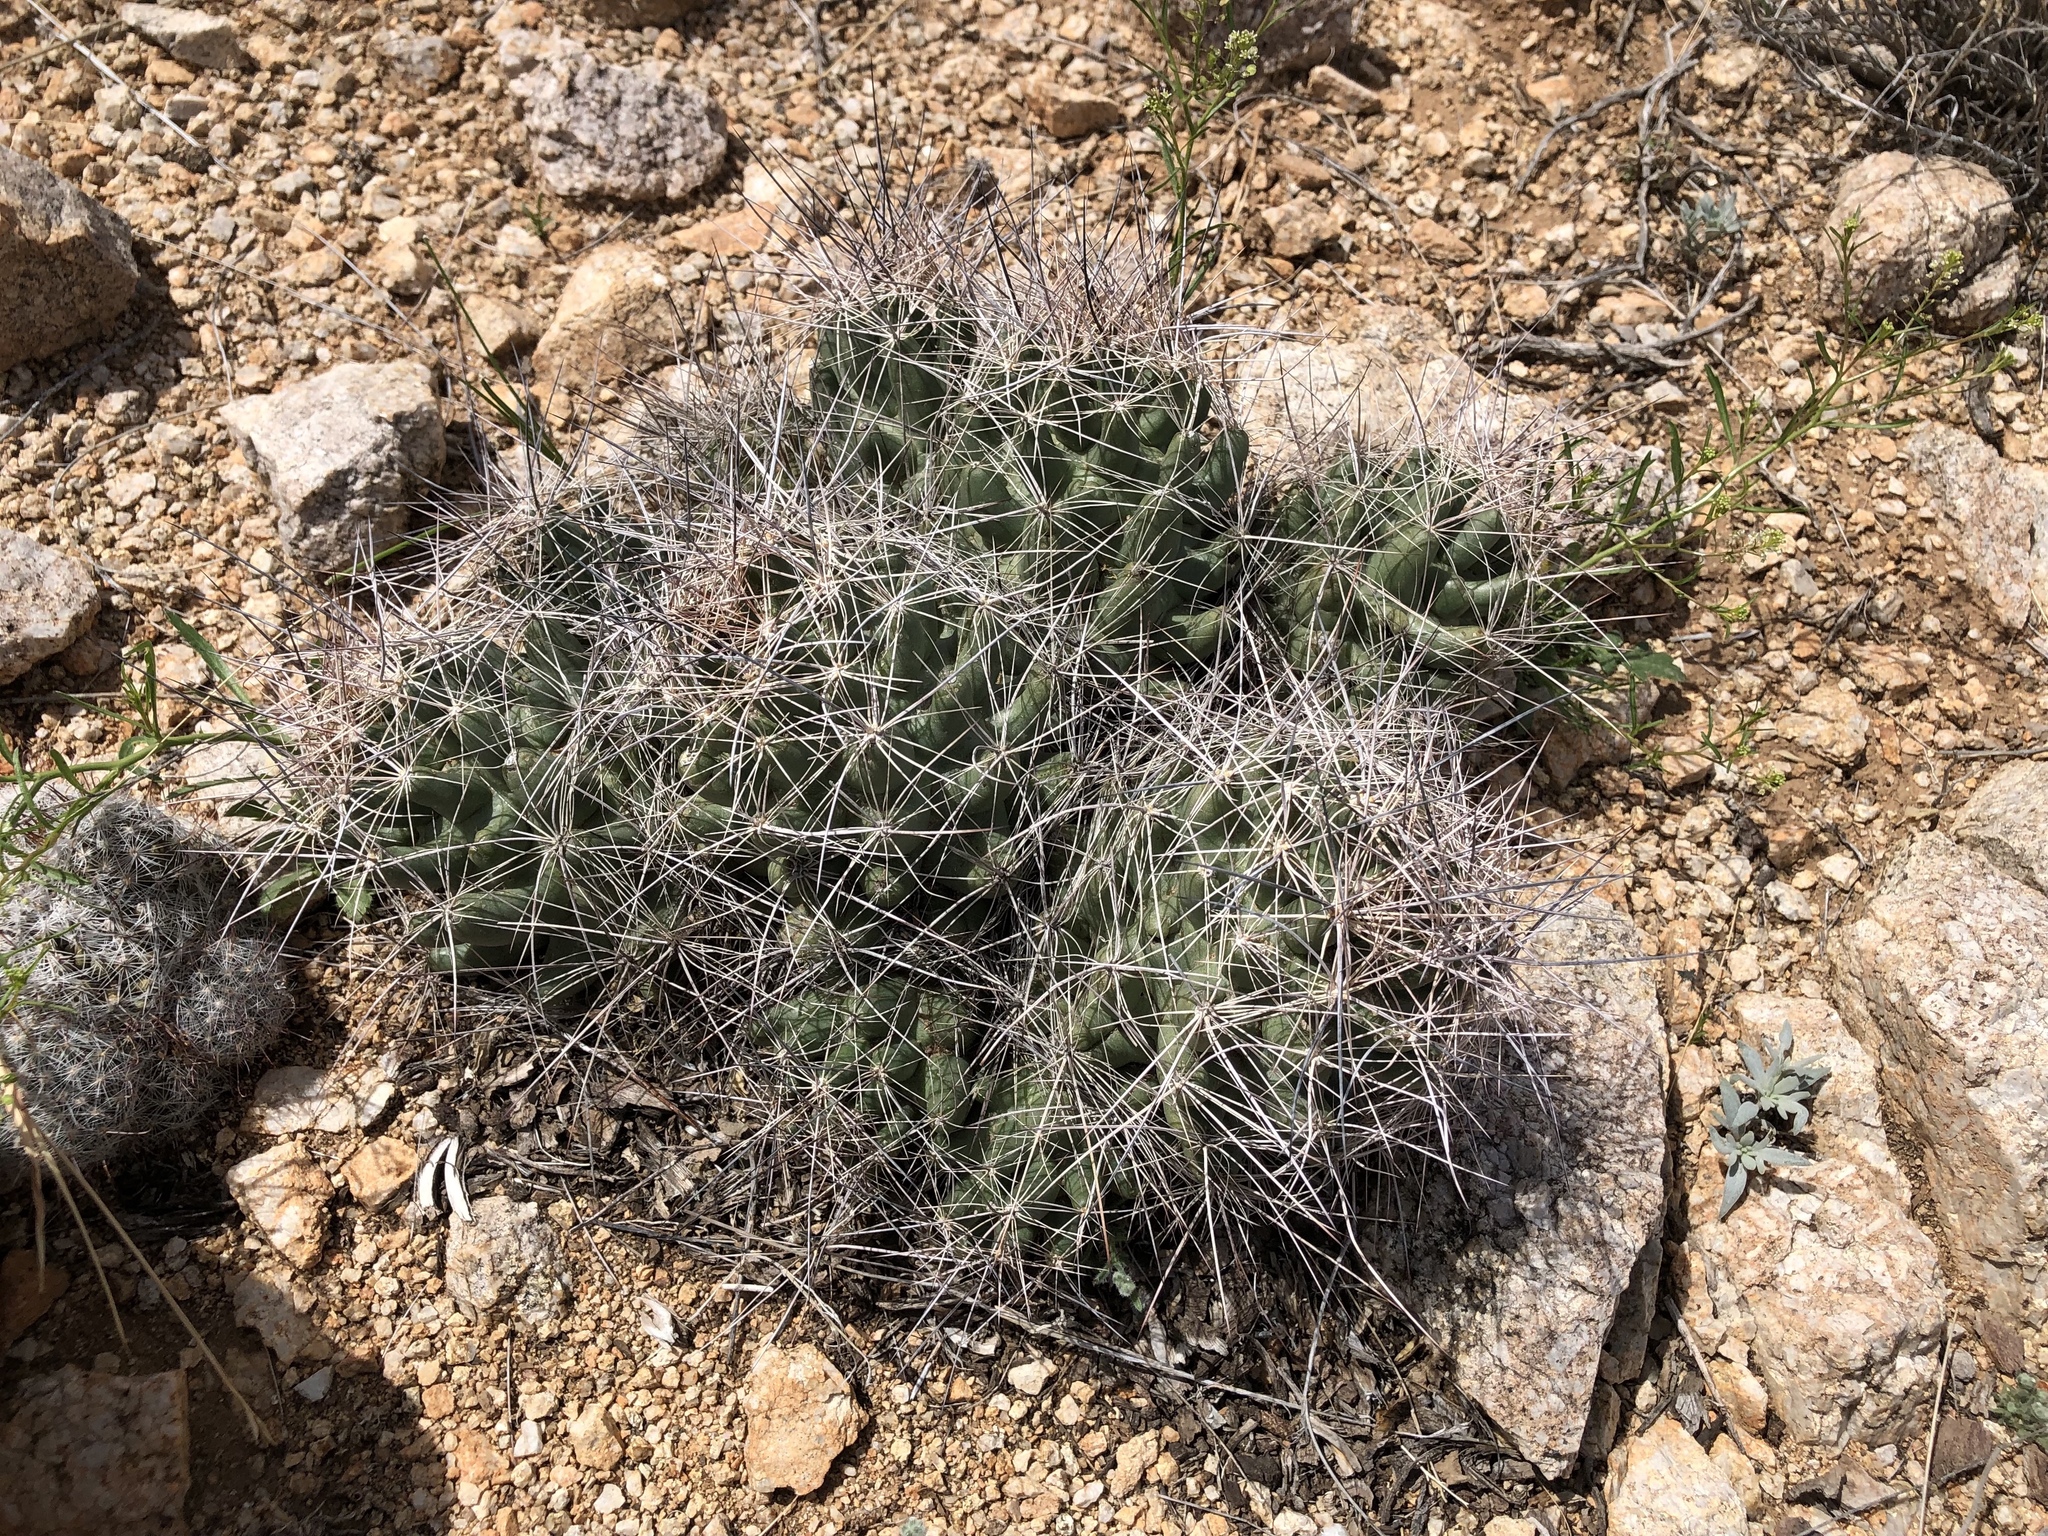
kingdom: Plantae
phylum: Tracheophyta
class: Magnoliopsida
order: Caryophyllales
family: Cactaceae
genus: Coryphantha
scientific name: Coryphantha macromeris
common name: Nipple beehive cactus
